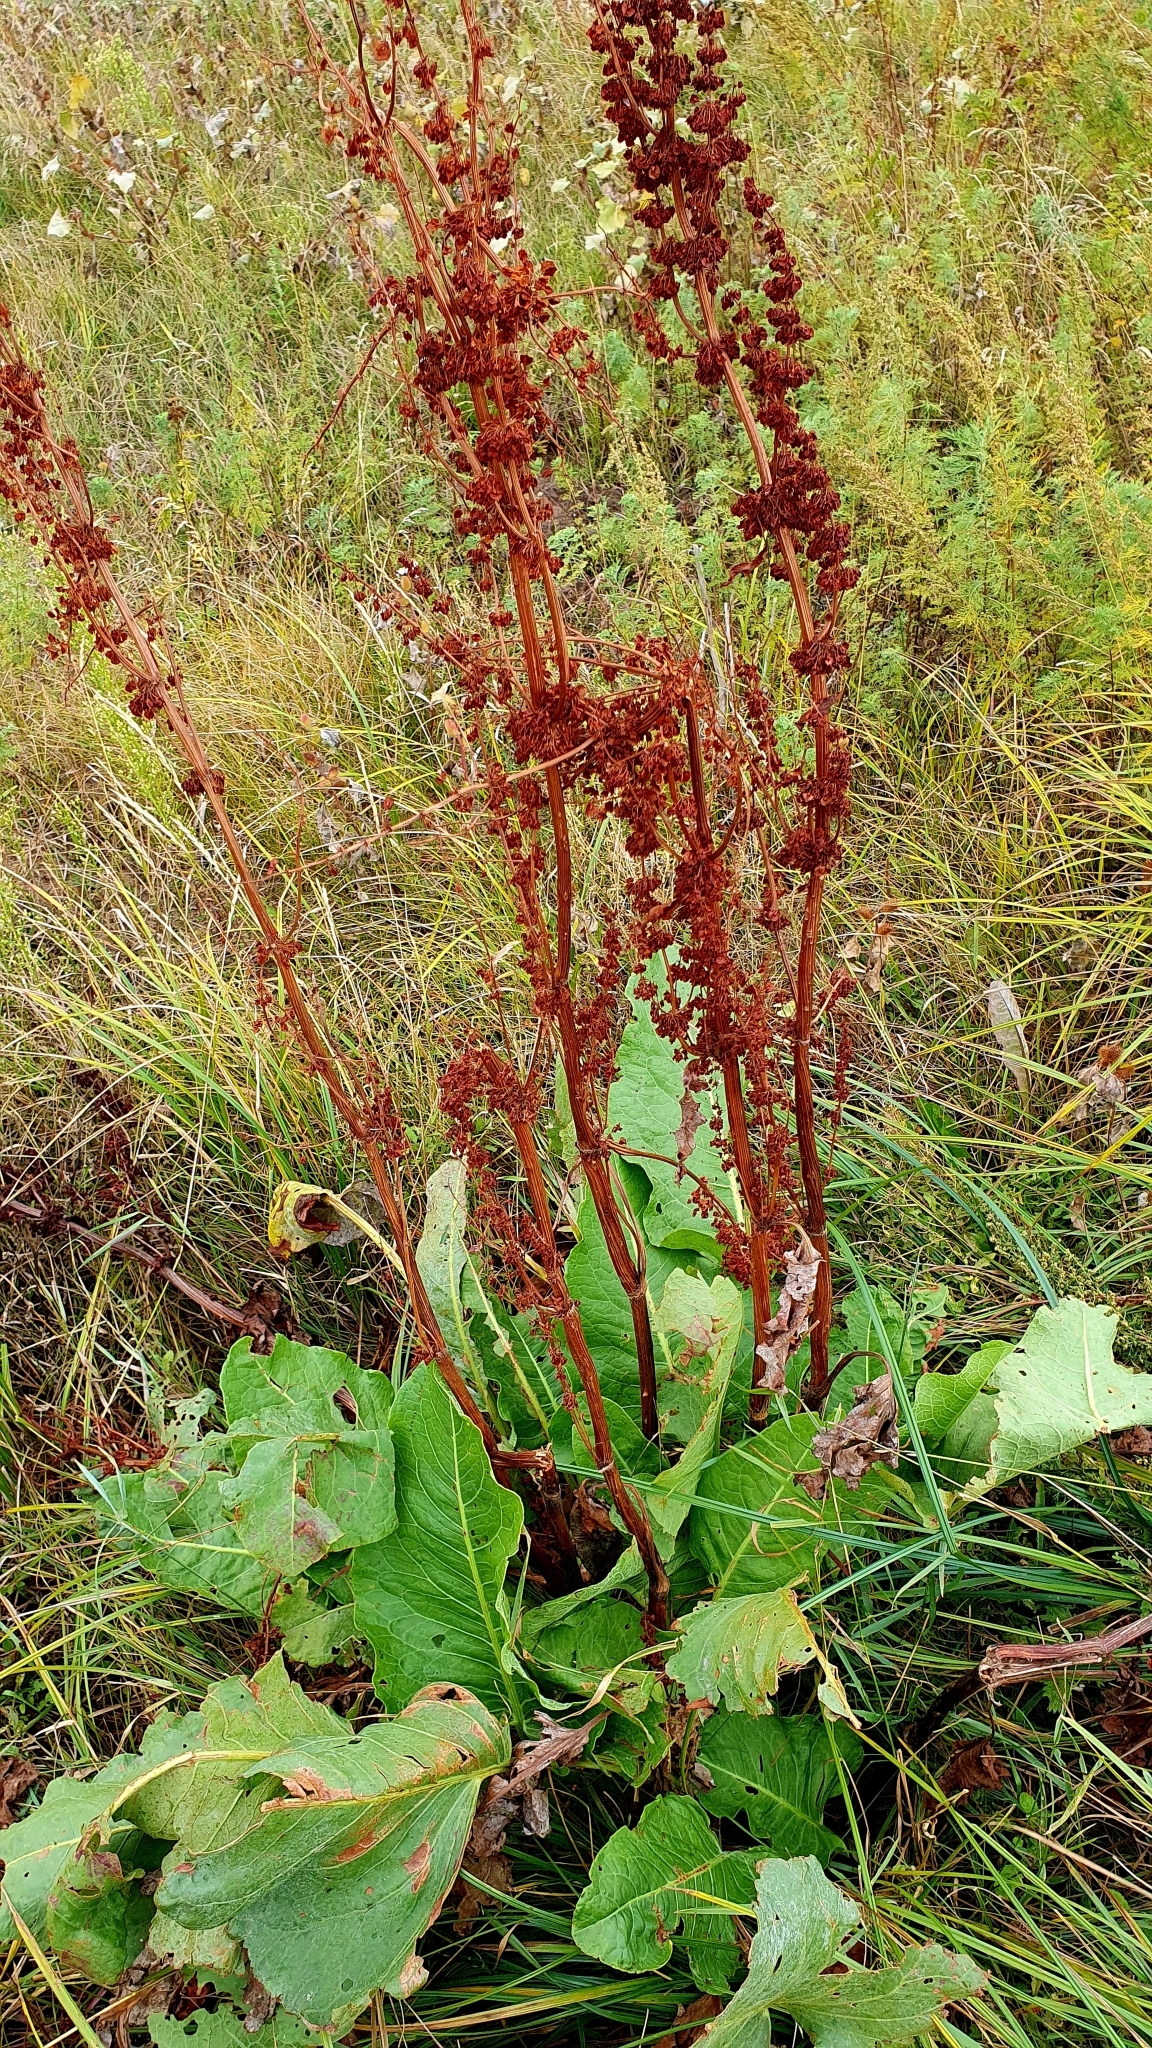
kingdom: Plantae
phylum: Tracheophyta
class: Magnoliopsida
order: Caryophyllales
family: Polygonaceae
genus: Rumex
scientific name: Rumex confertus
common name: Russian dock
